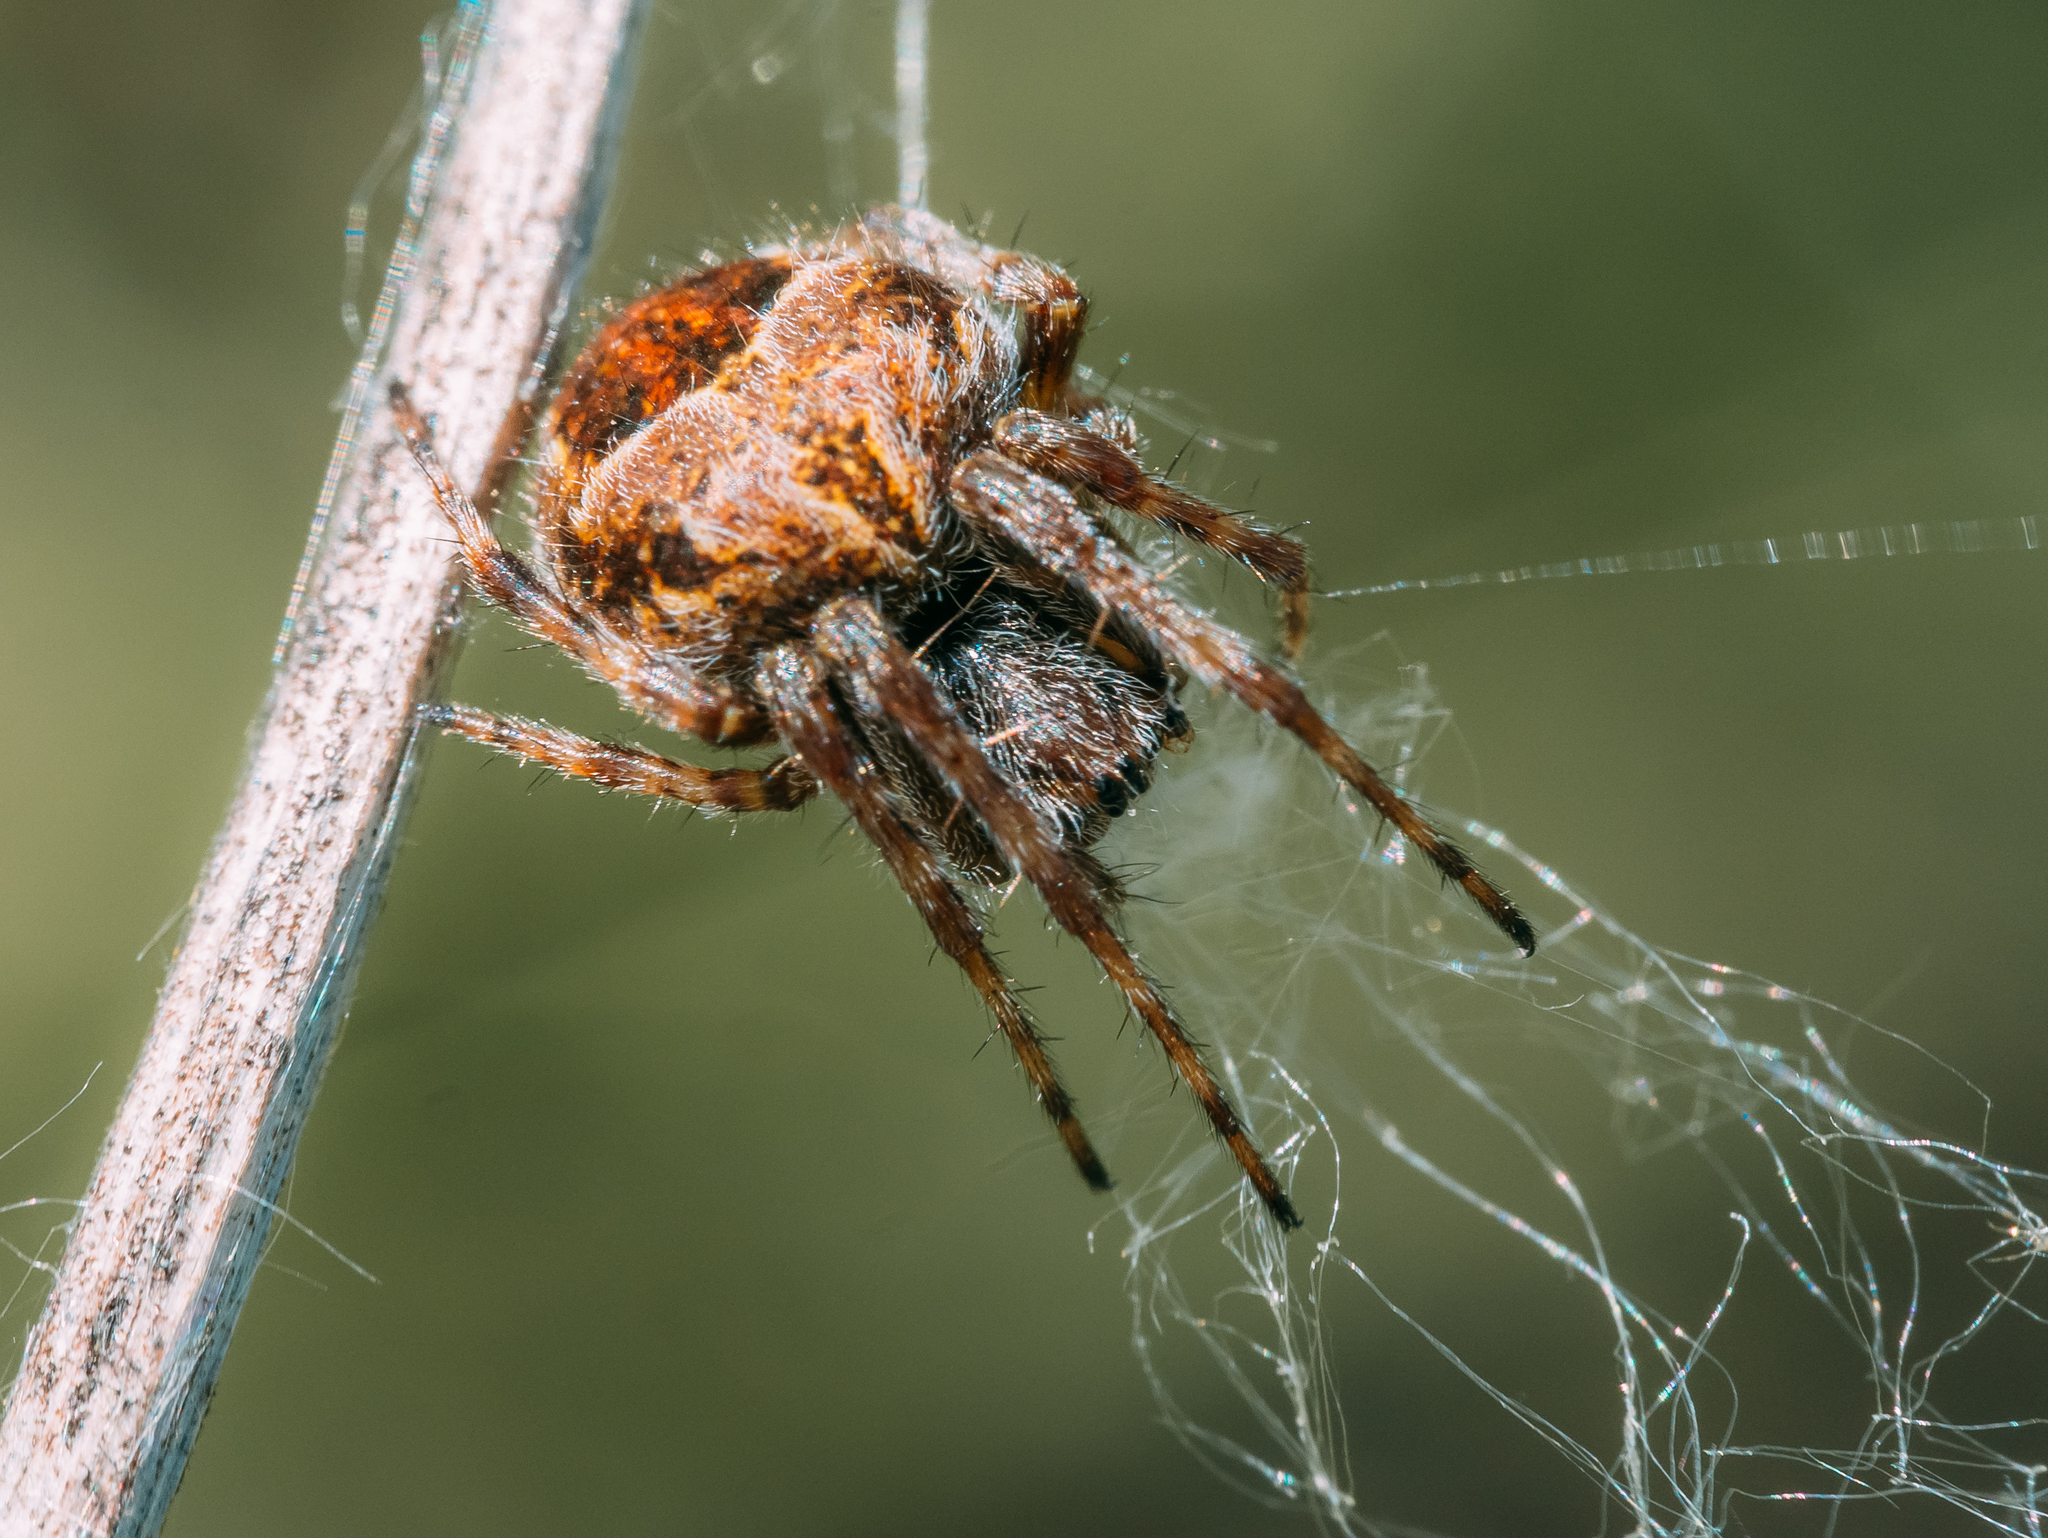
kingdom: Animalia
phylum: Arthropoda
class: Arachnida
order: Araneae
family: Araneidae
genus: Agalenatea
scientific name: Agalenatea redii
